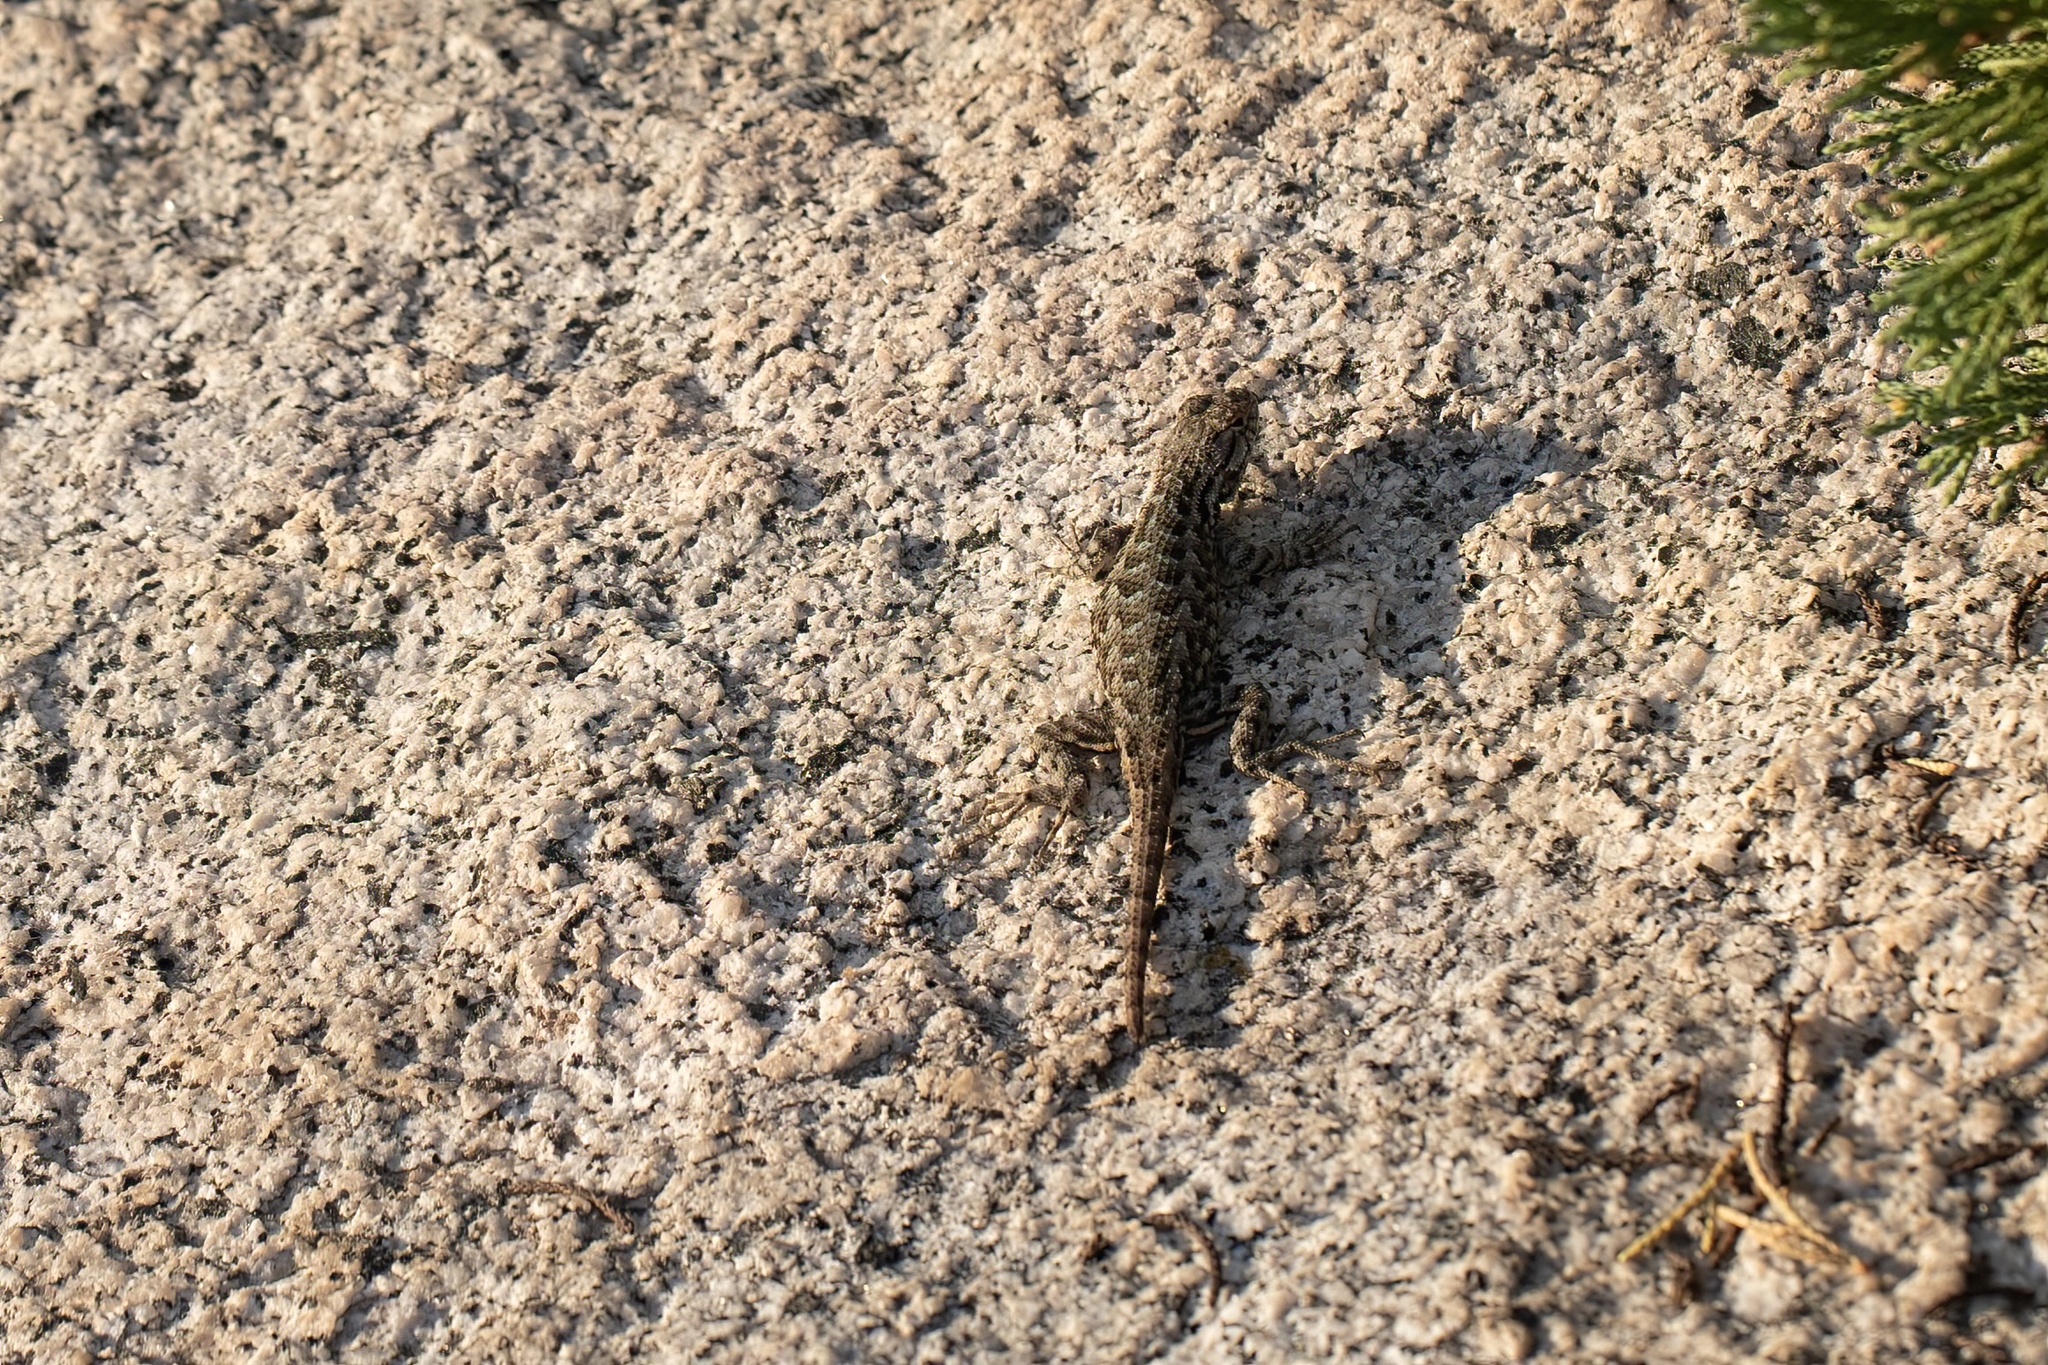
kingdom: Animalia
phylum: Chordata
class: Squamata
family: Phrynosomatidae
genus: Sceloporus
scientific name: Sceloporus occidentalis
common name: Western fence lizard
